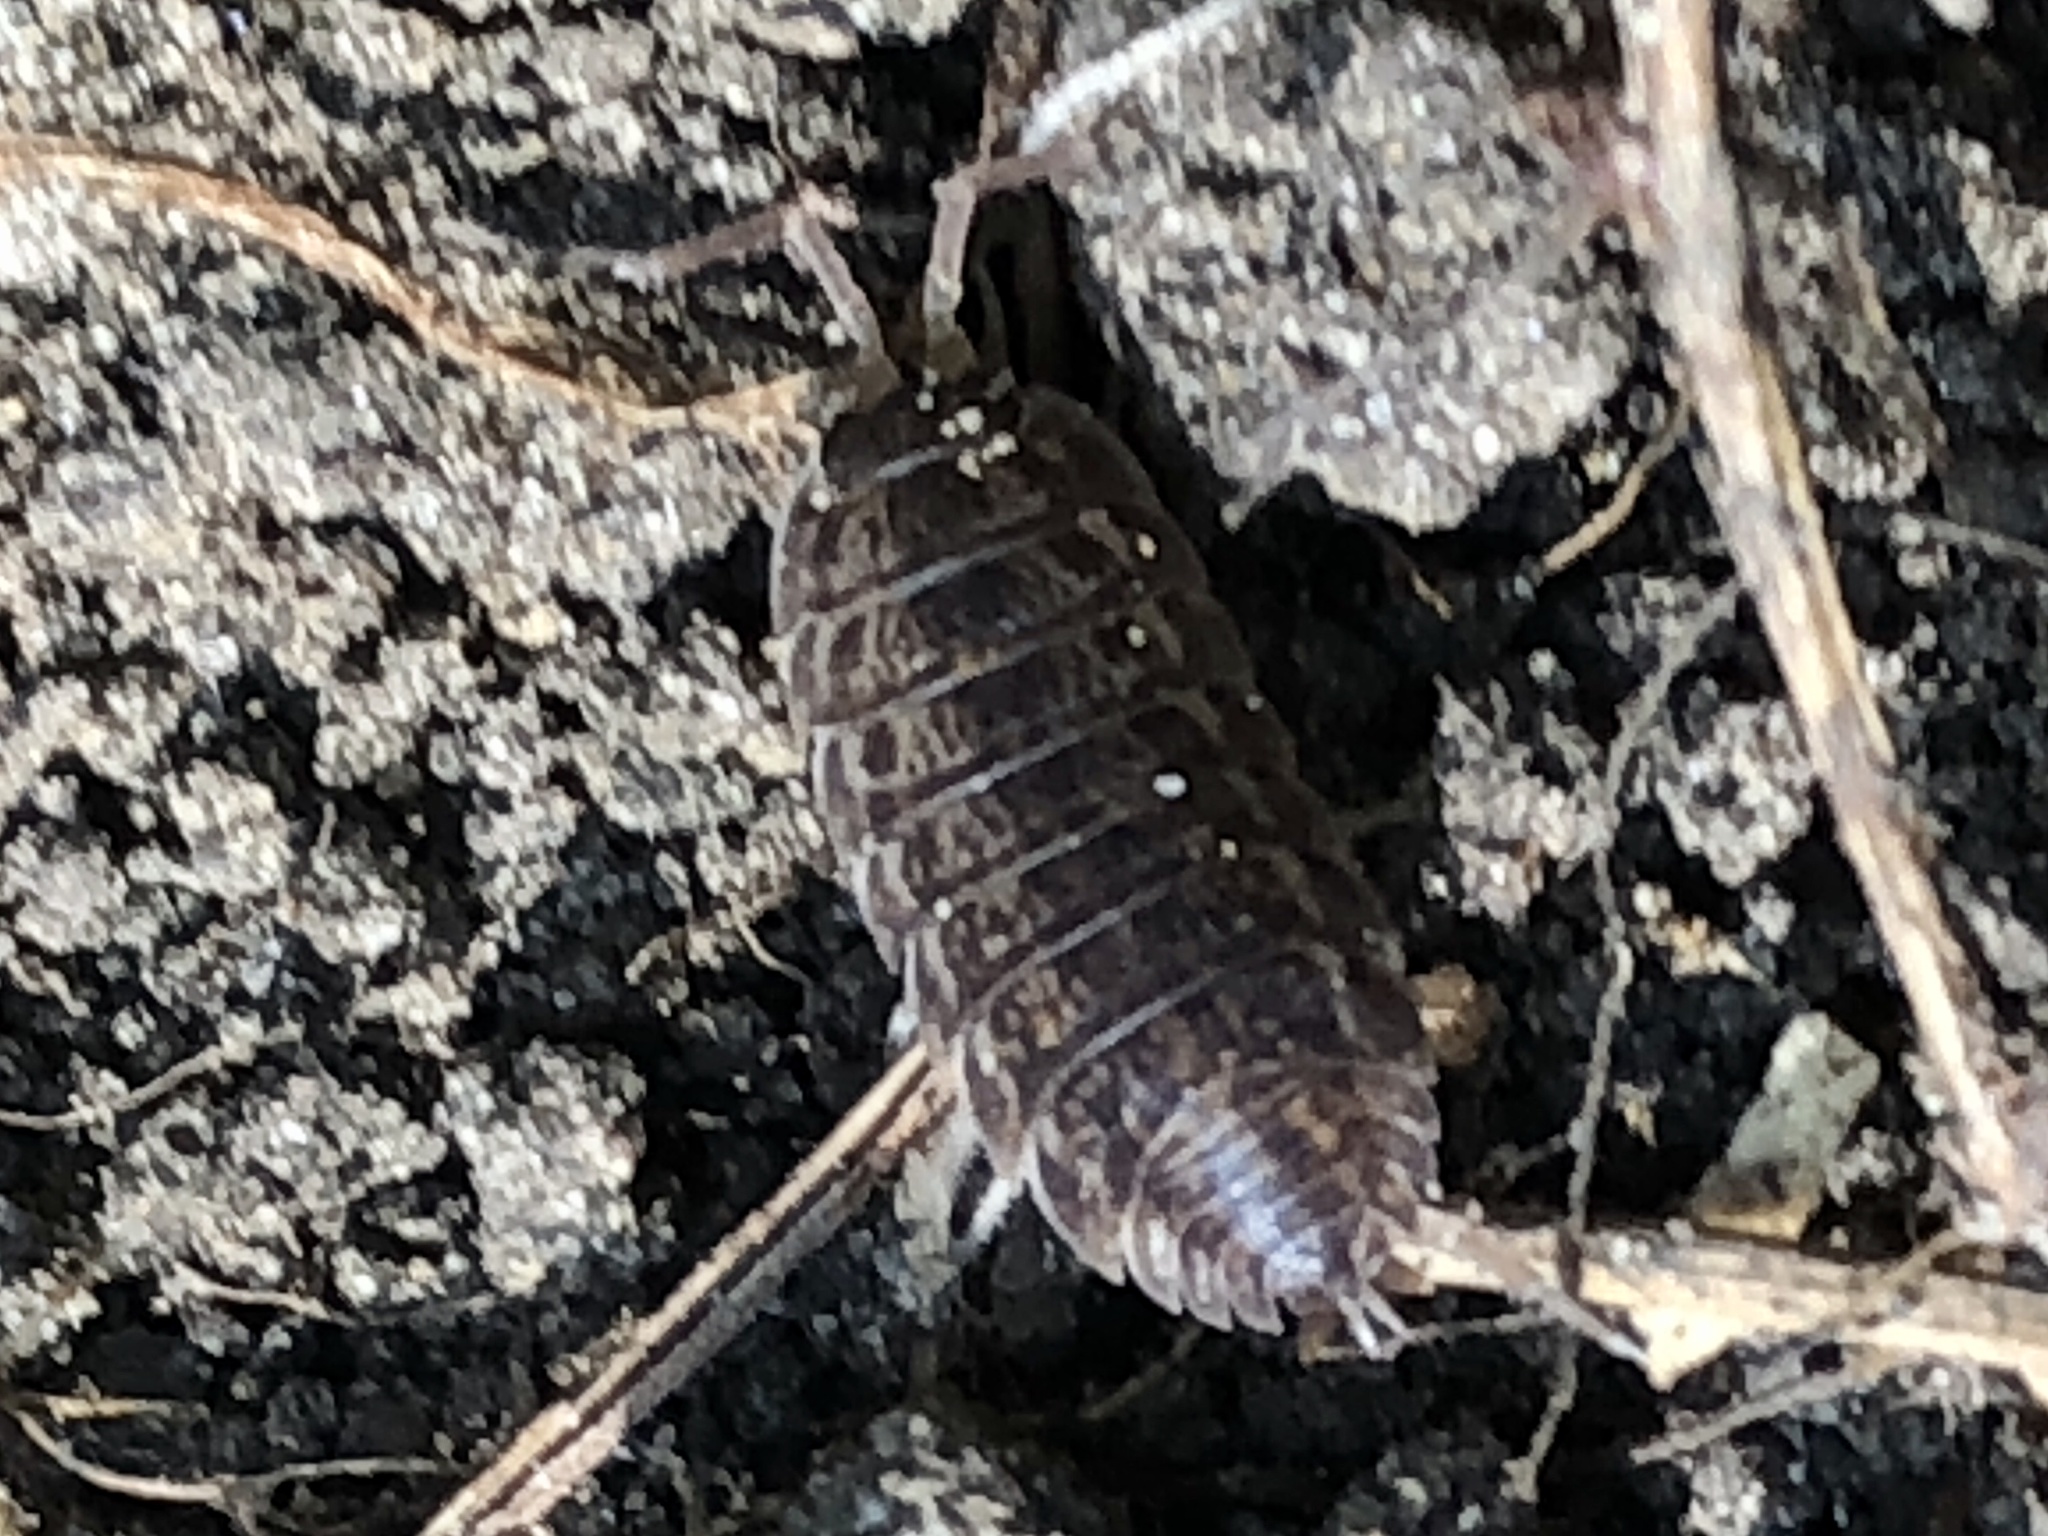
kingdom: Animalia
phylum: Arthropoda
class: Malacostraca
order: Isopoda
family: Trachelipodidae
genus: Trachelipus
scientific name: Trachelipus rathkii
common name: Isopod
